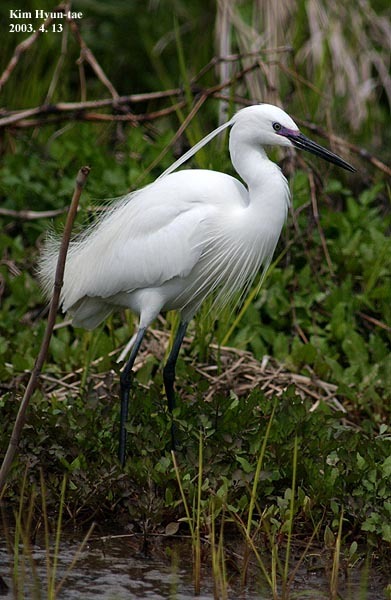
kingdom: Animalia
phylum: Chordata
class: Aves
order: Pelecaniformes
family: Ardeidae
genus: Egretta
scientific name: Egretta garzetta
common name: Little egret
